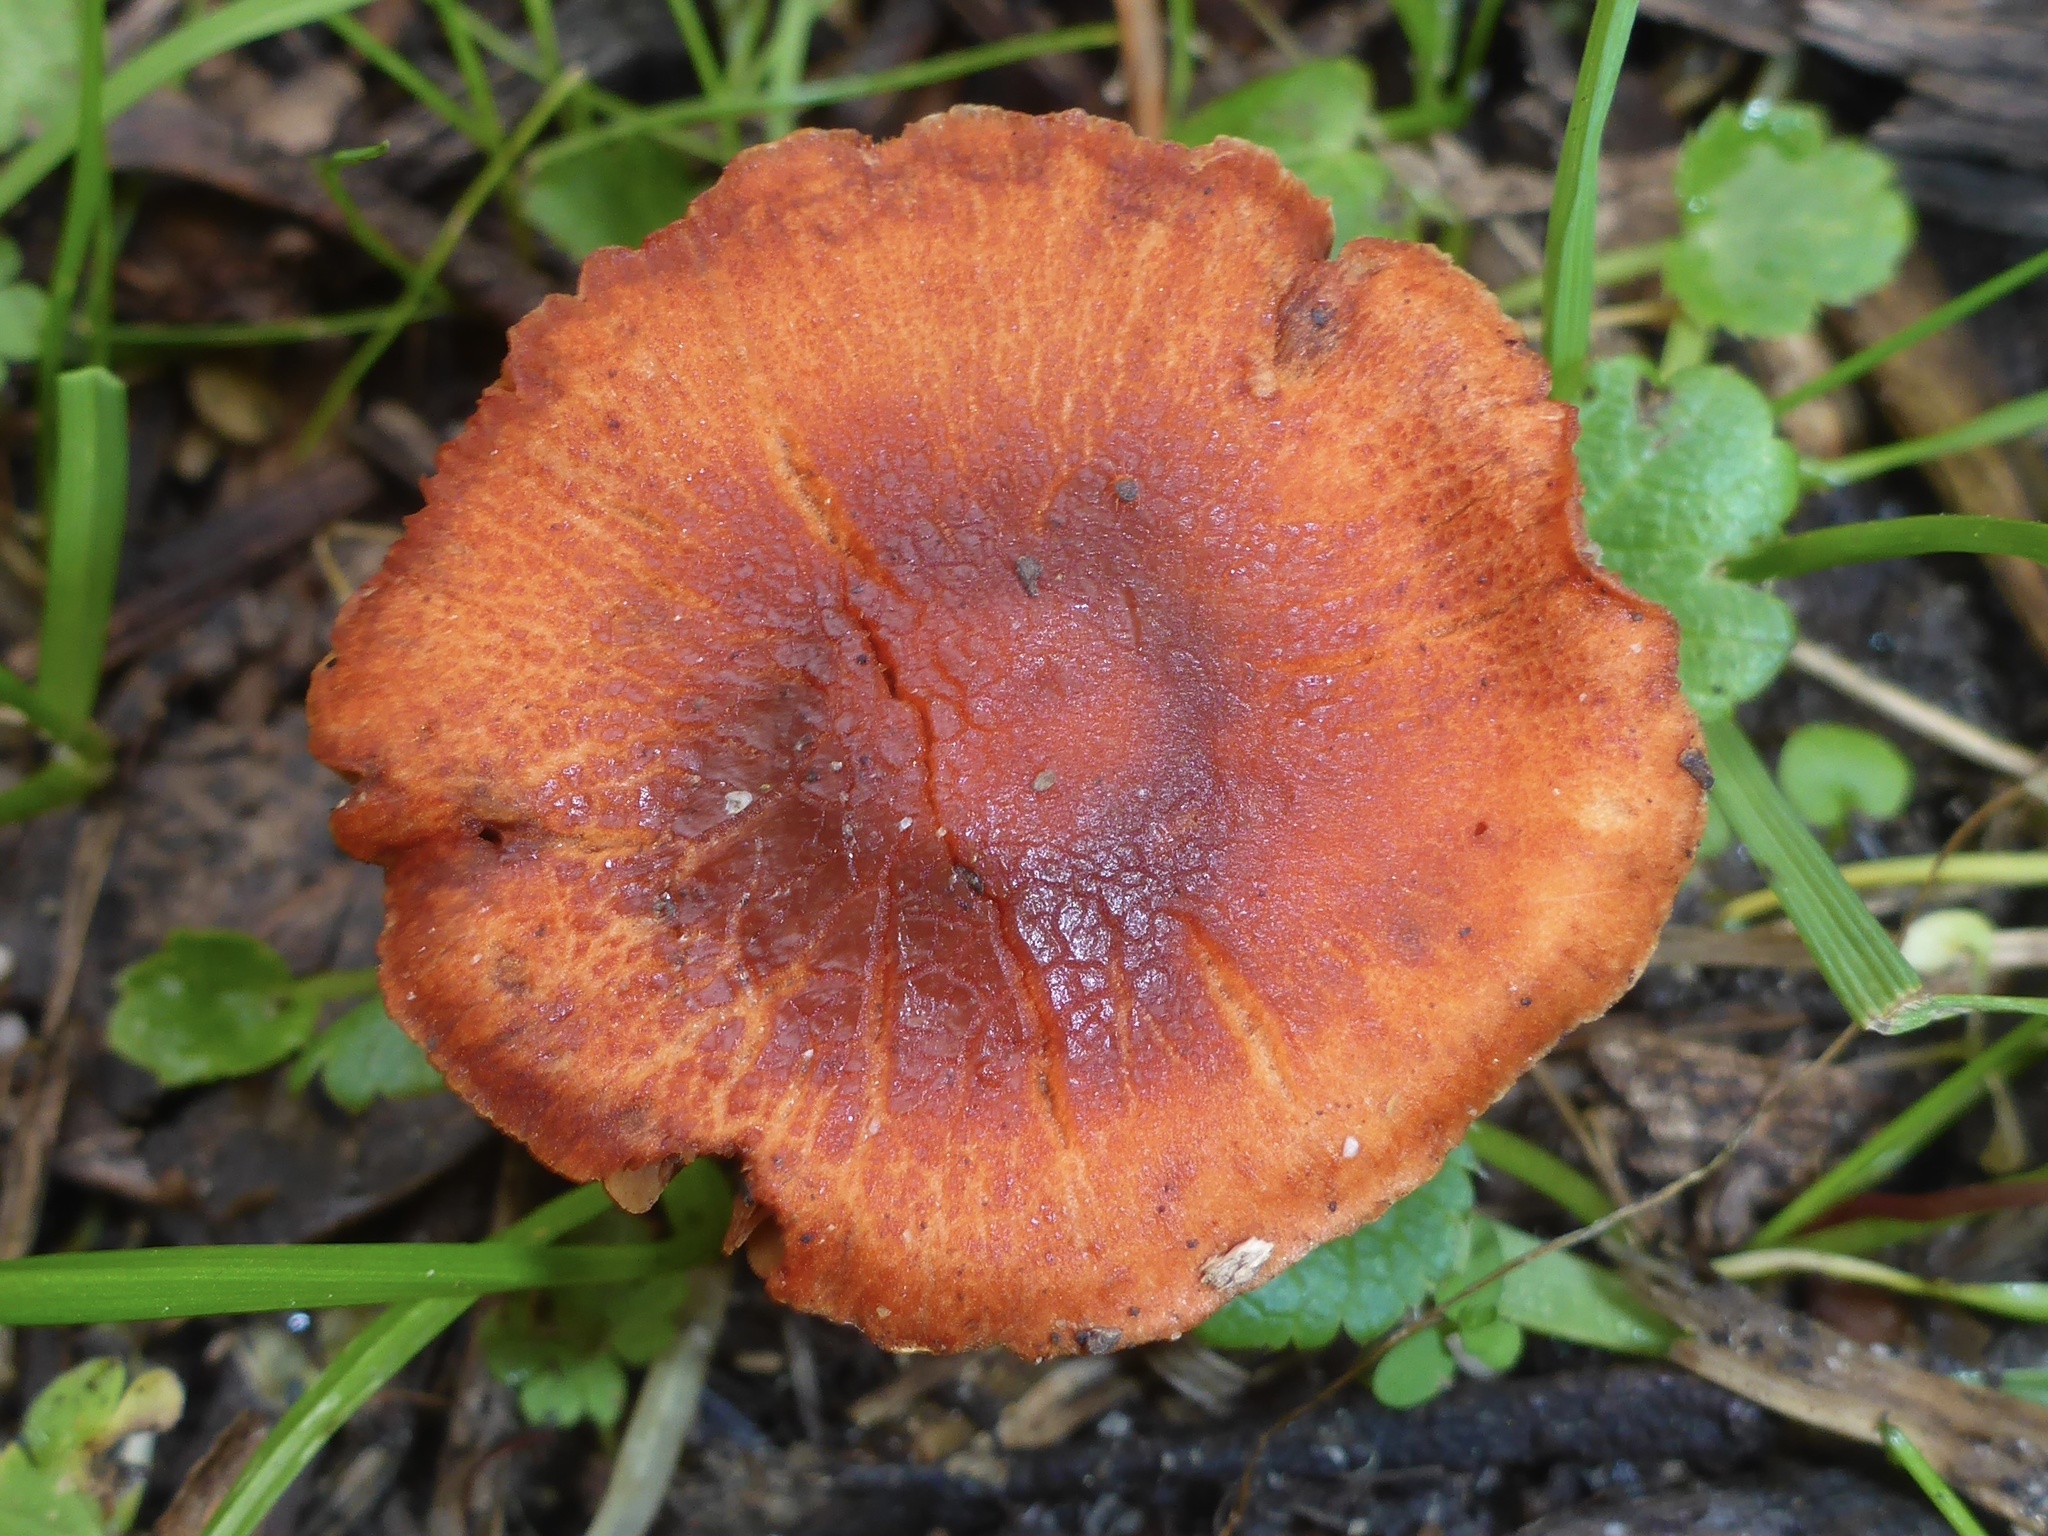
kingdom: Fungi
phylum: Basidiomycota
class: Agaricomycetes
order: Agaricales
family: Strophariaceae
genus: Leratiomyces
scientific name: Leratiomyces ceres
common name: Redlead roundhead
